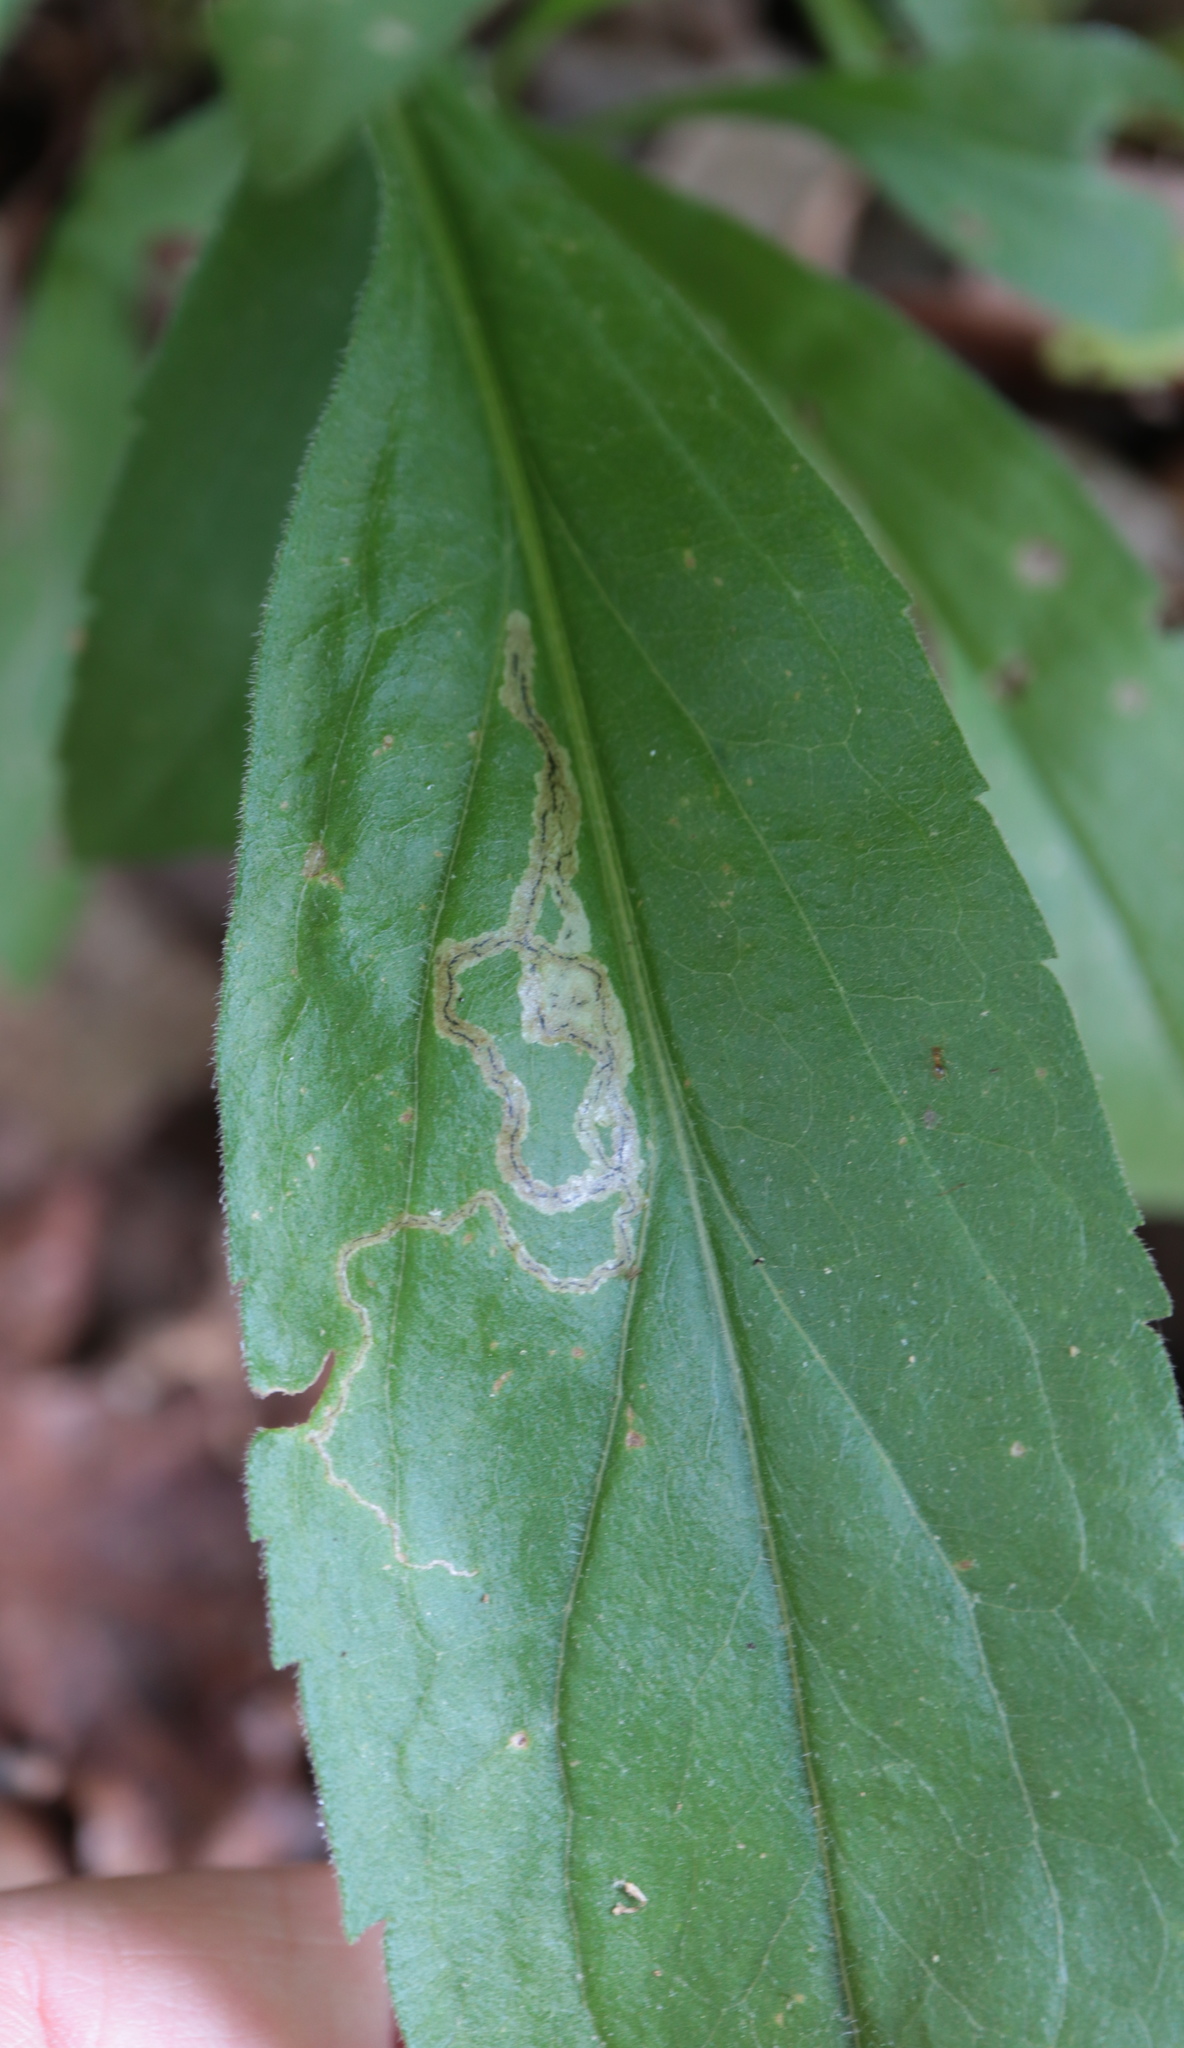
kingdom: Animalia
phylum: Arthropoda
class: Insecta
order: Diptera
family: Agromyzidae
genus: Liriomyza
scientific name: Liriomyza eupatorii
